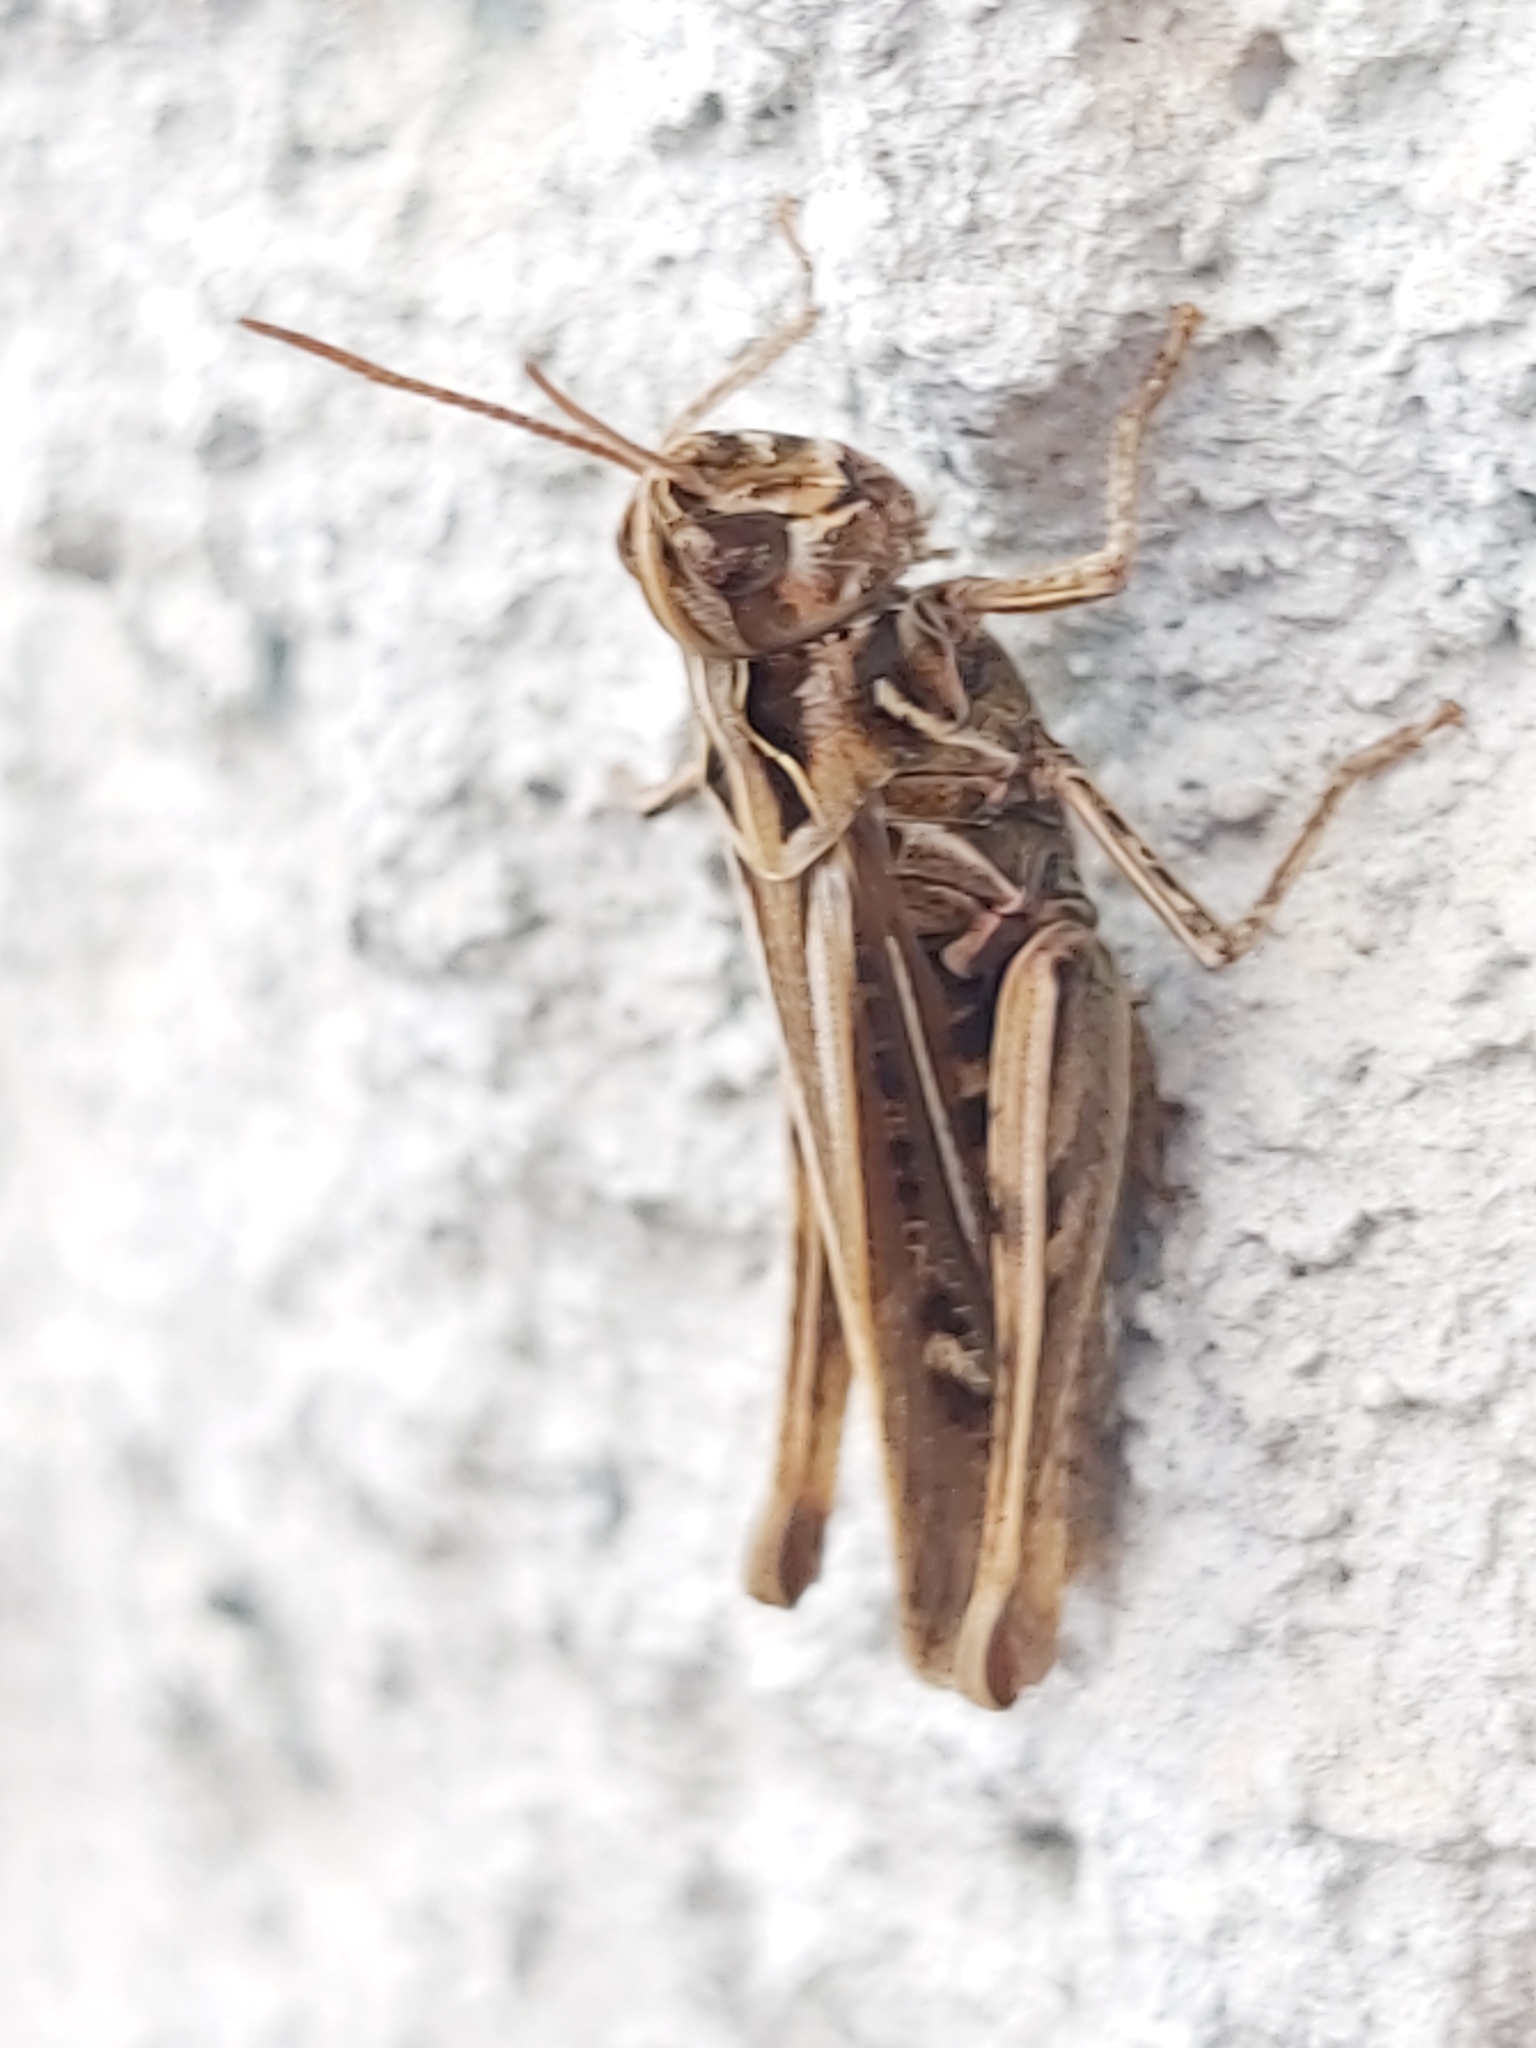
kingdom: Animalia
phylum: Arthropoda
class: Insecta
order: Orthoptera
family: Acrididae
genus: Chorthippus
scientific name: Chorthippus brunneus
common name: Field grasshopper
